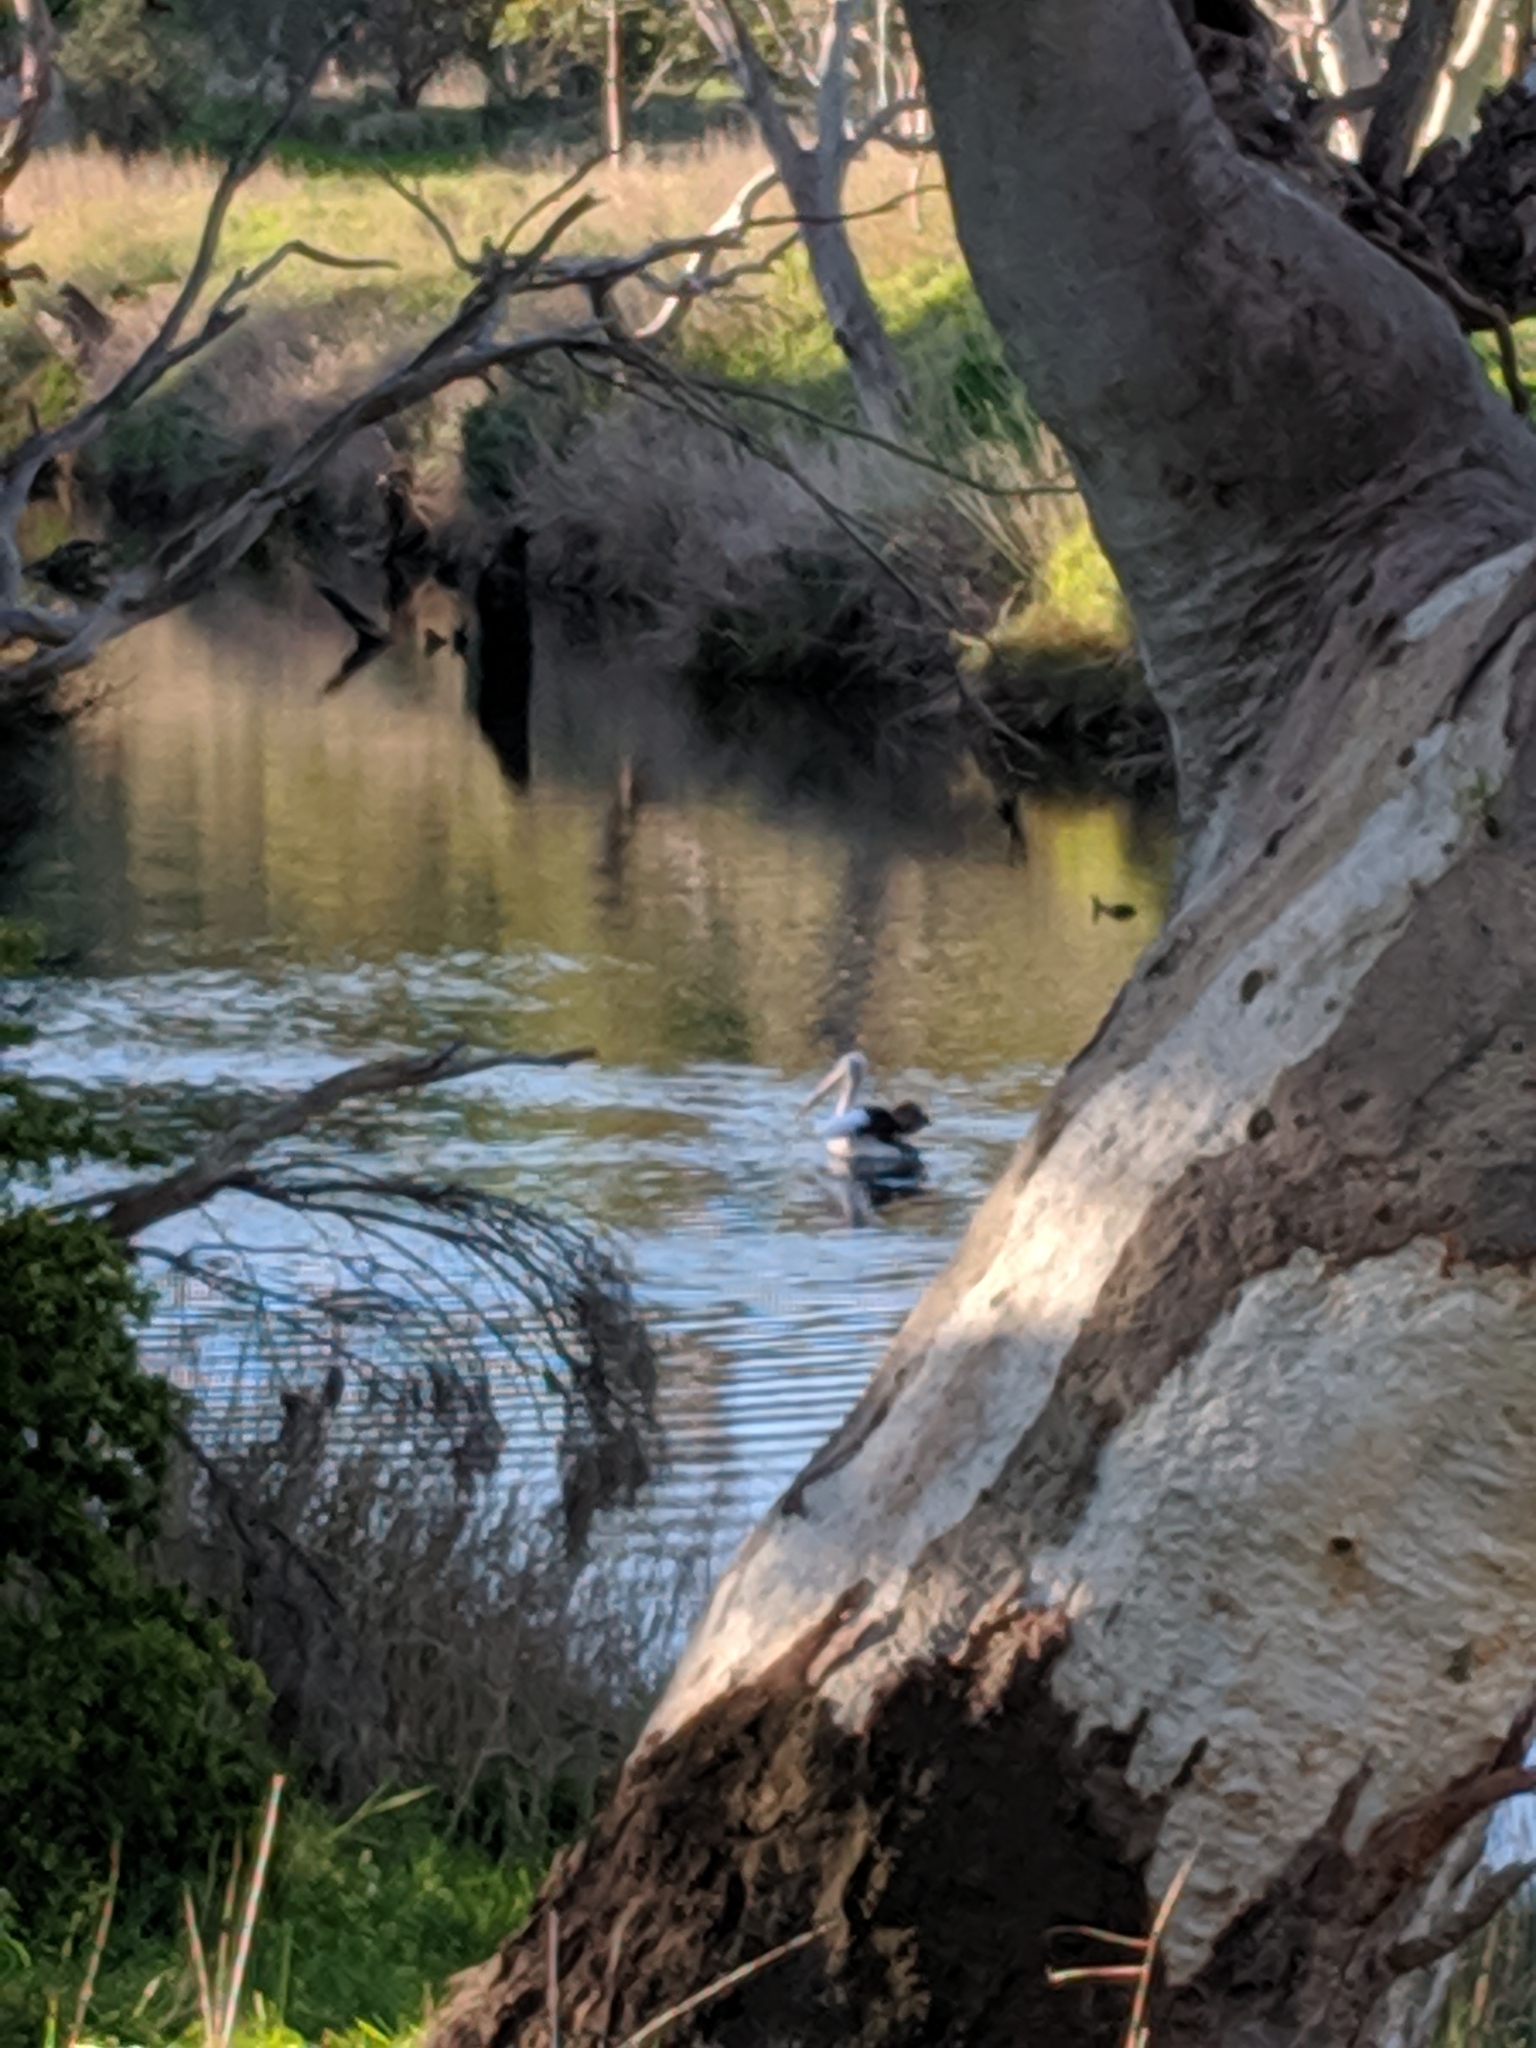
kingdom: Animalia
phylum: Chordata
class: Aves
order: Pelecaniformes
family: Pelecanidae
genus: Pelecanus
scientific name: Pelecanus conspicillatus
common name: Australian pelican
